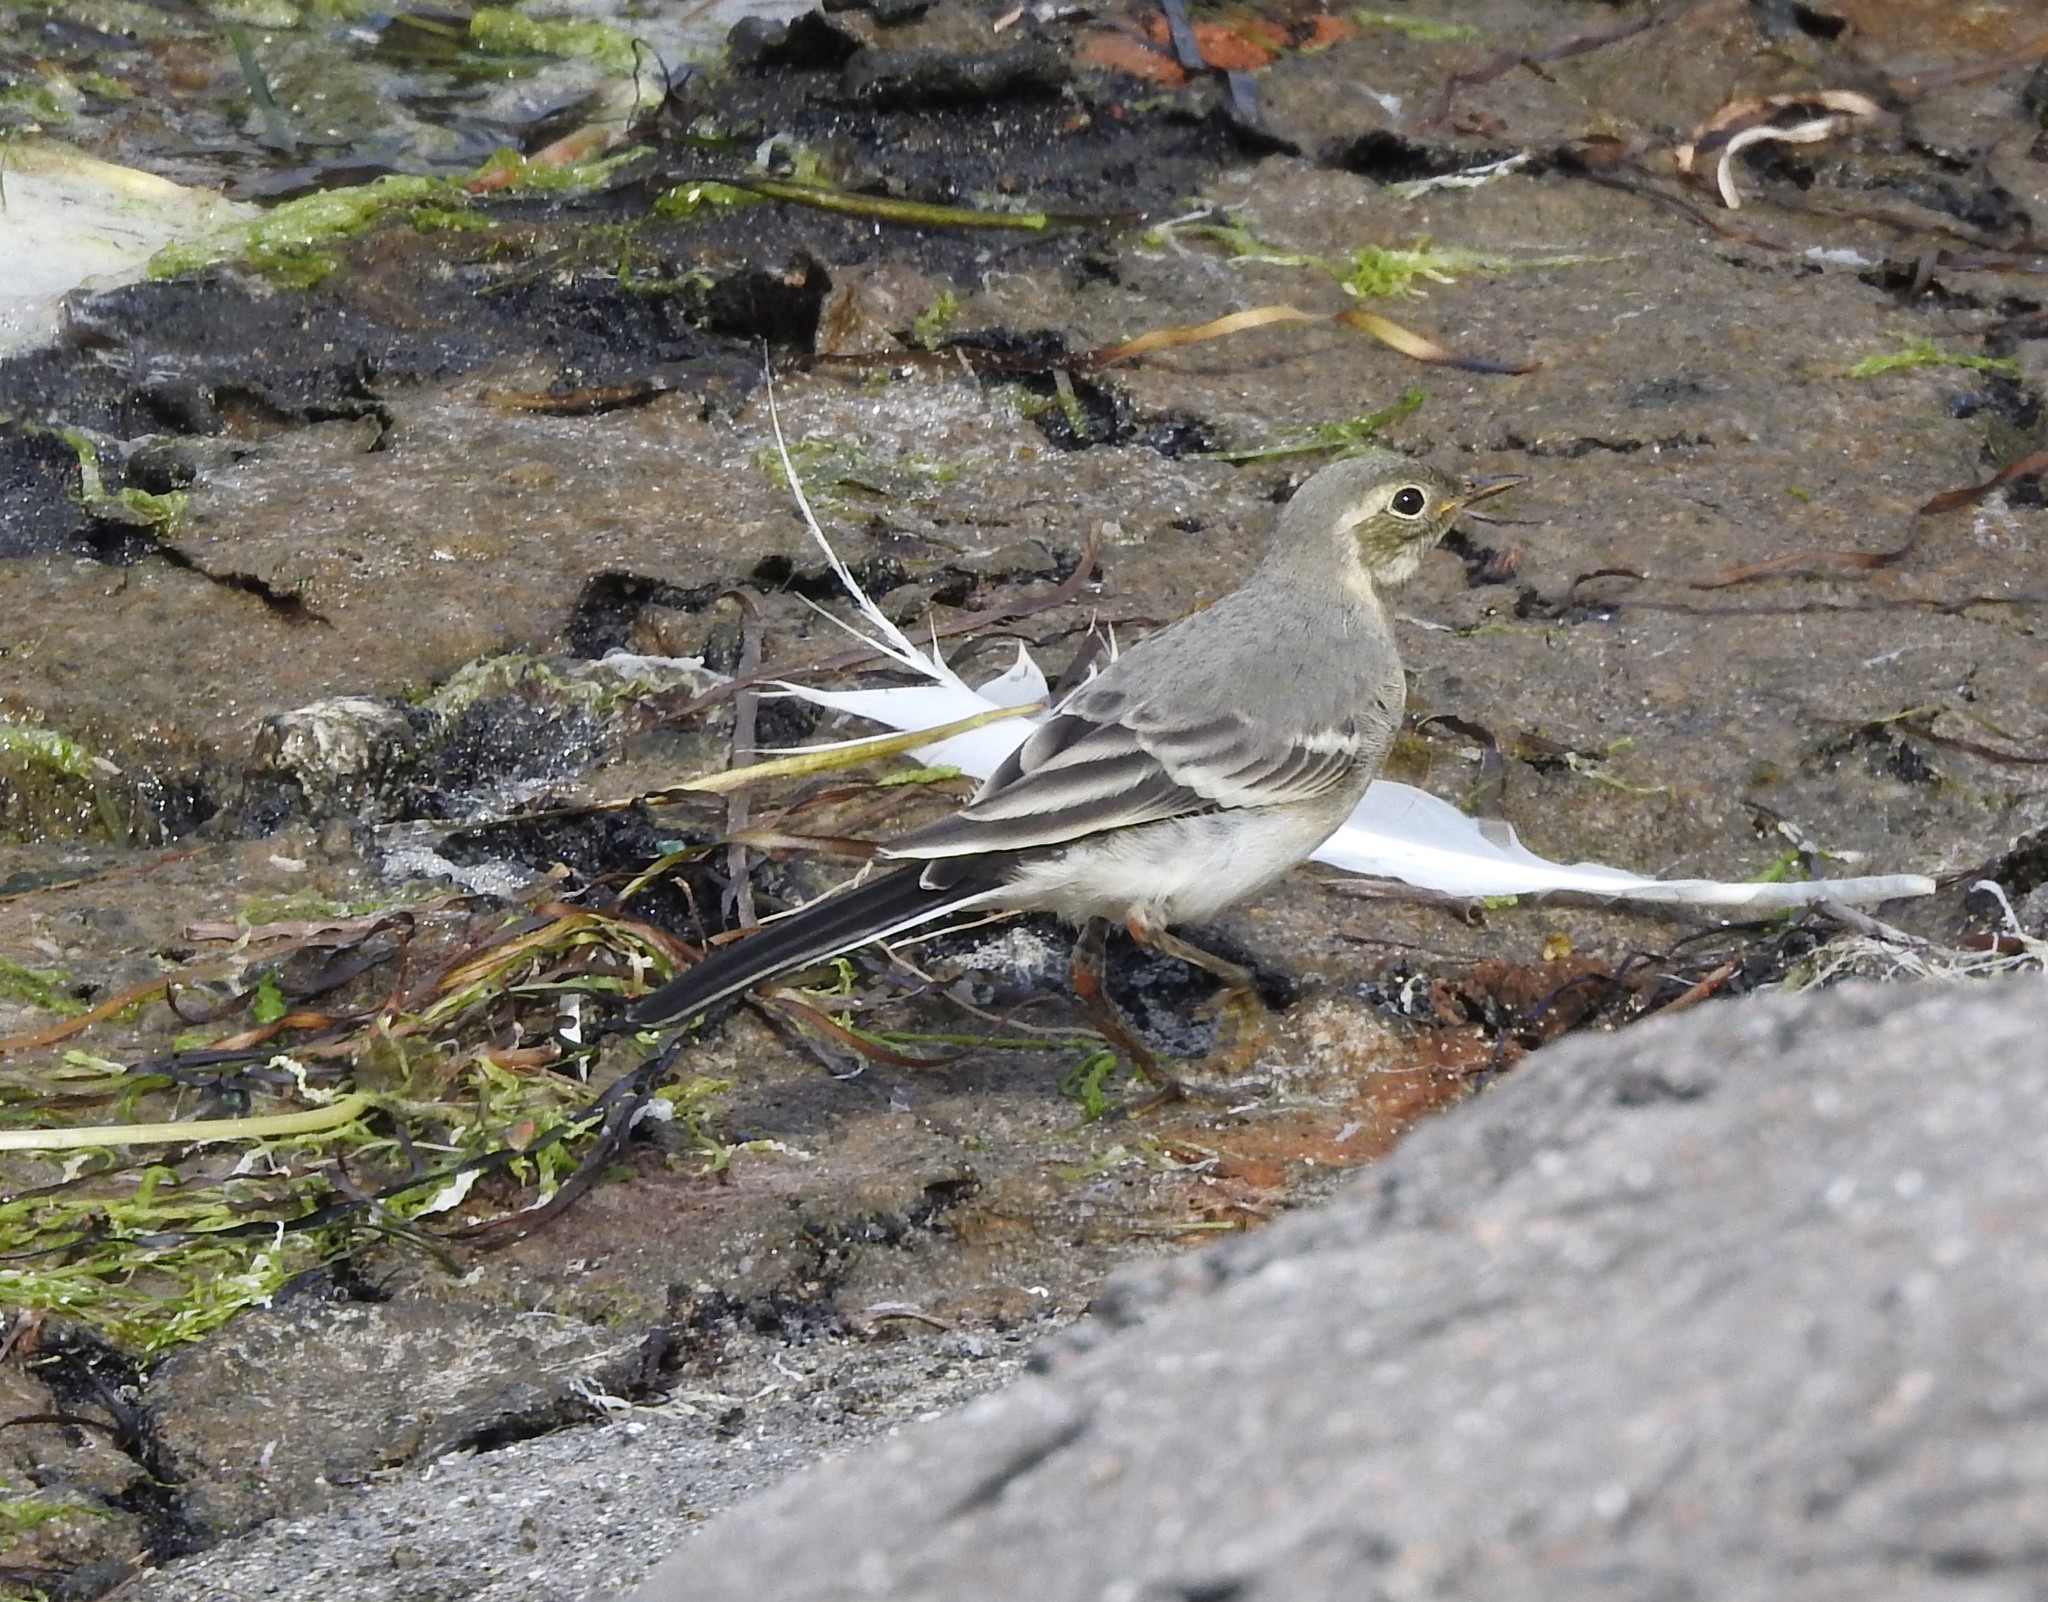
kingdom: Animalia
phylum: Chordata
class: Aves
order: Passeriformes
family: Motacillidae
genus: Motacilla
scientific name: Motacilla alba
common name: White wagtail
